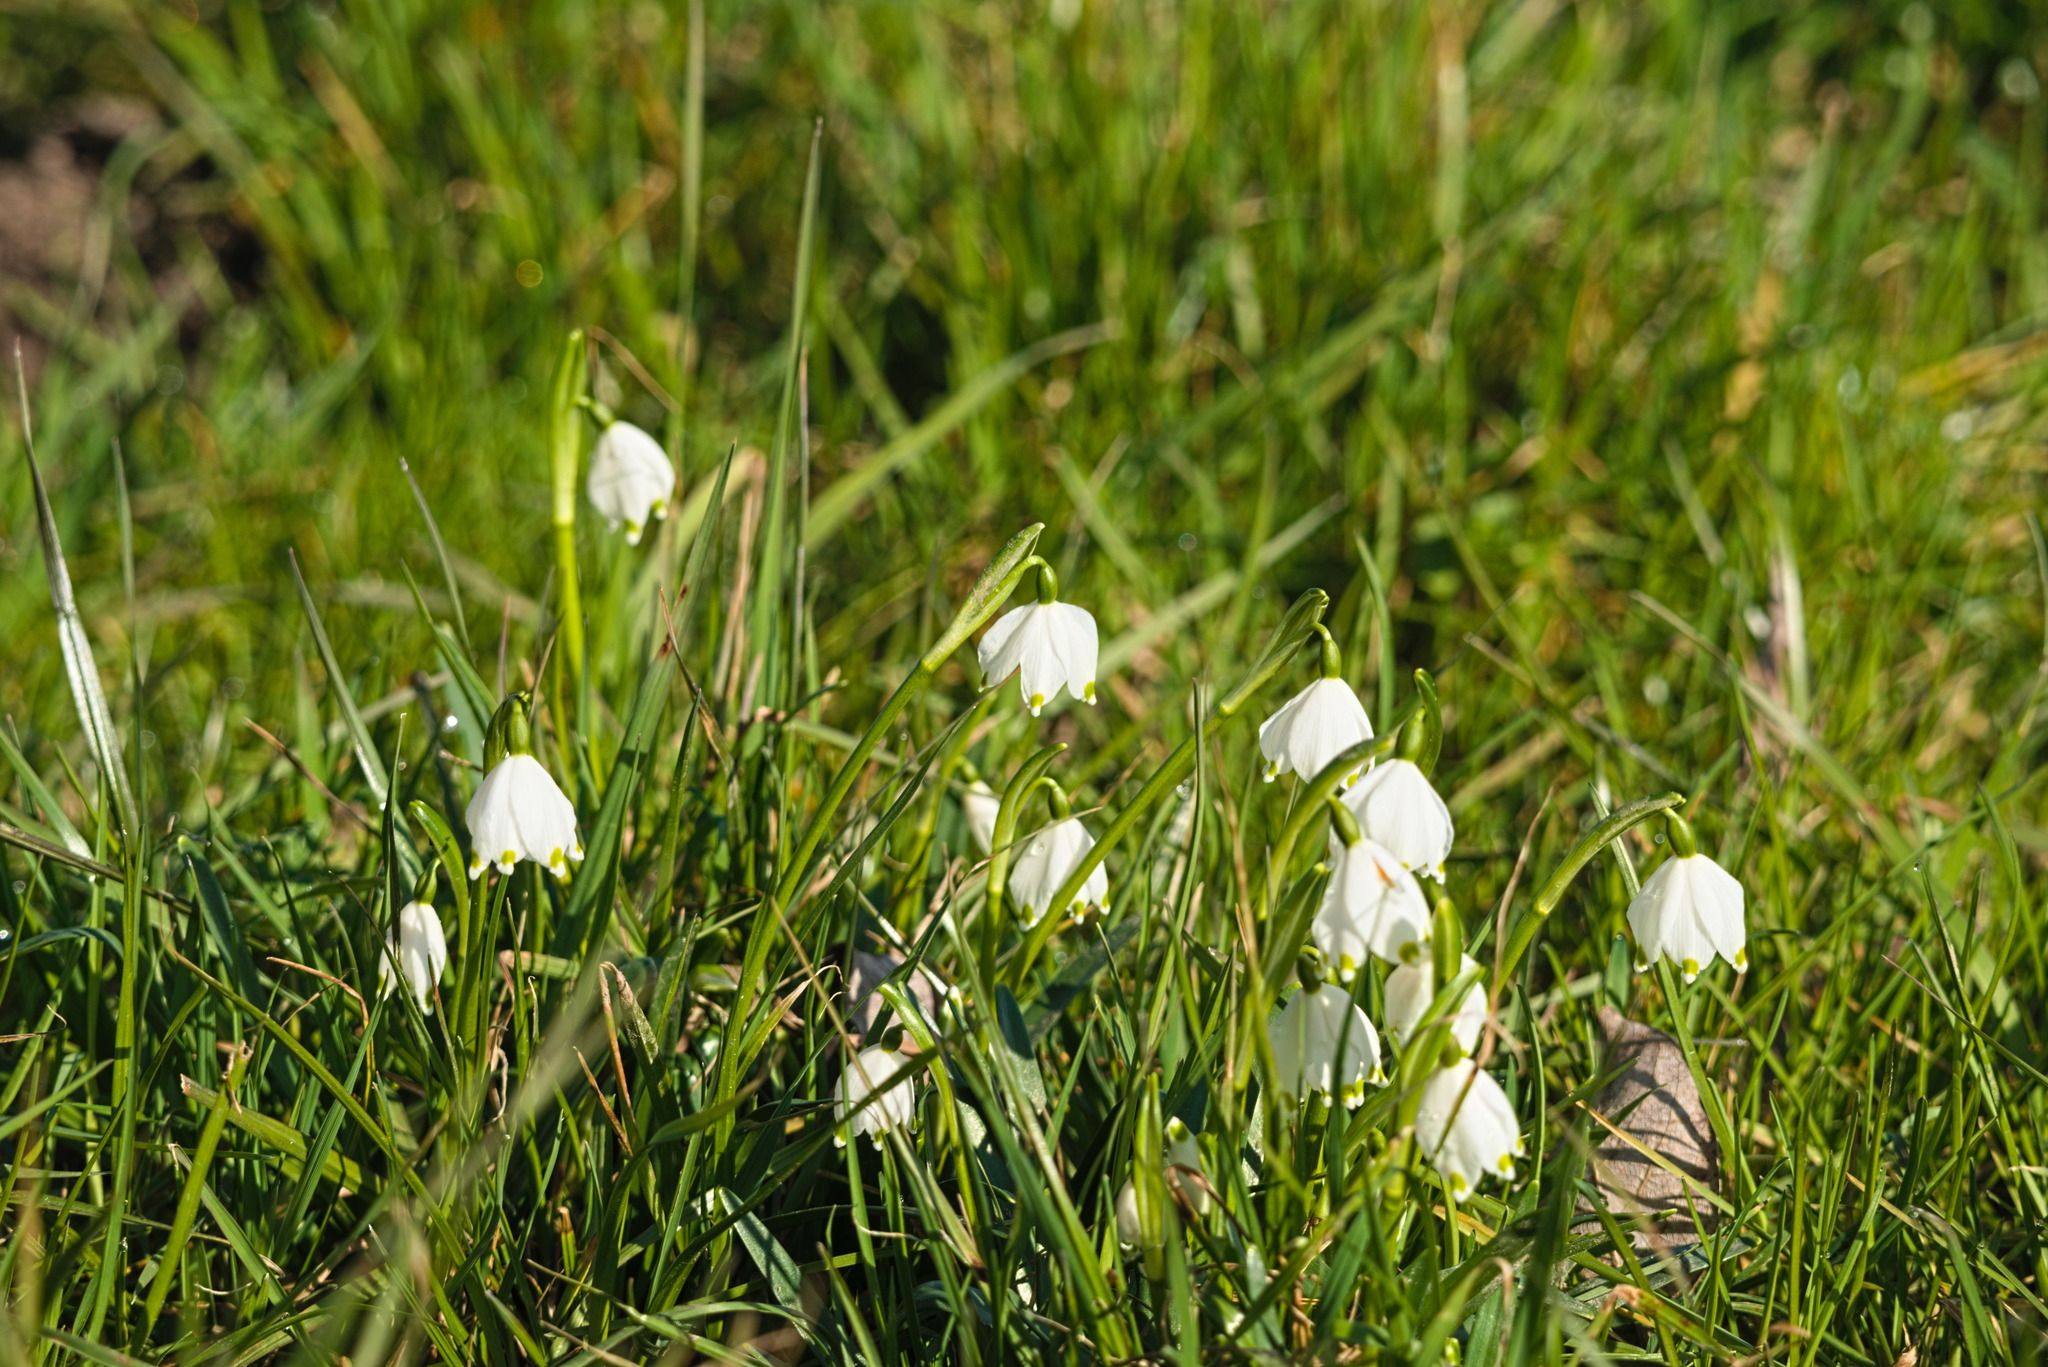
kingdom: Plantae
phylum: Tracheophyta
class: Liliopsida
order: Asparagales
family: Amaryllidaceae
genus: Leucojum
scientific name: Leucojum vernum
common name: Spring snowflake
